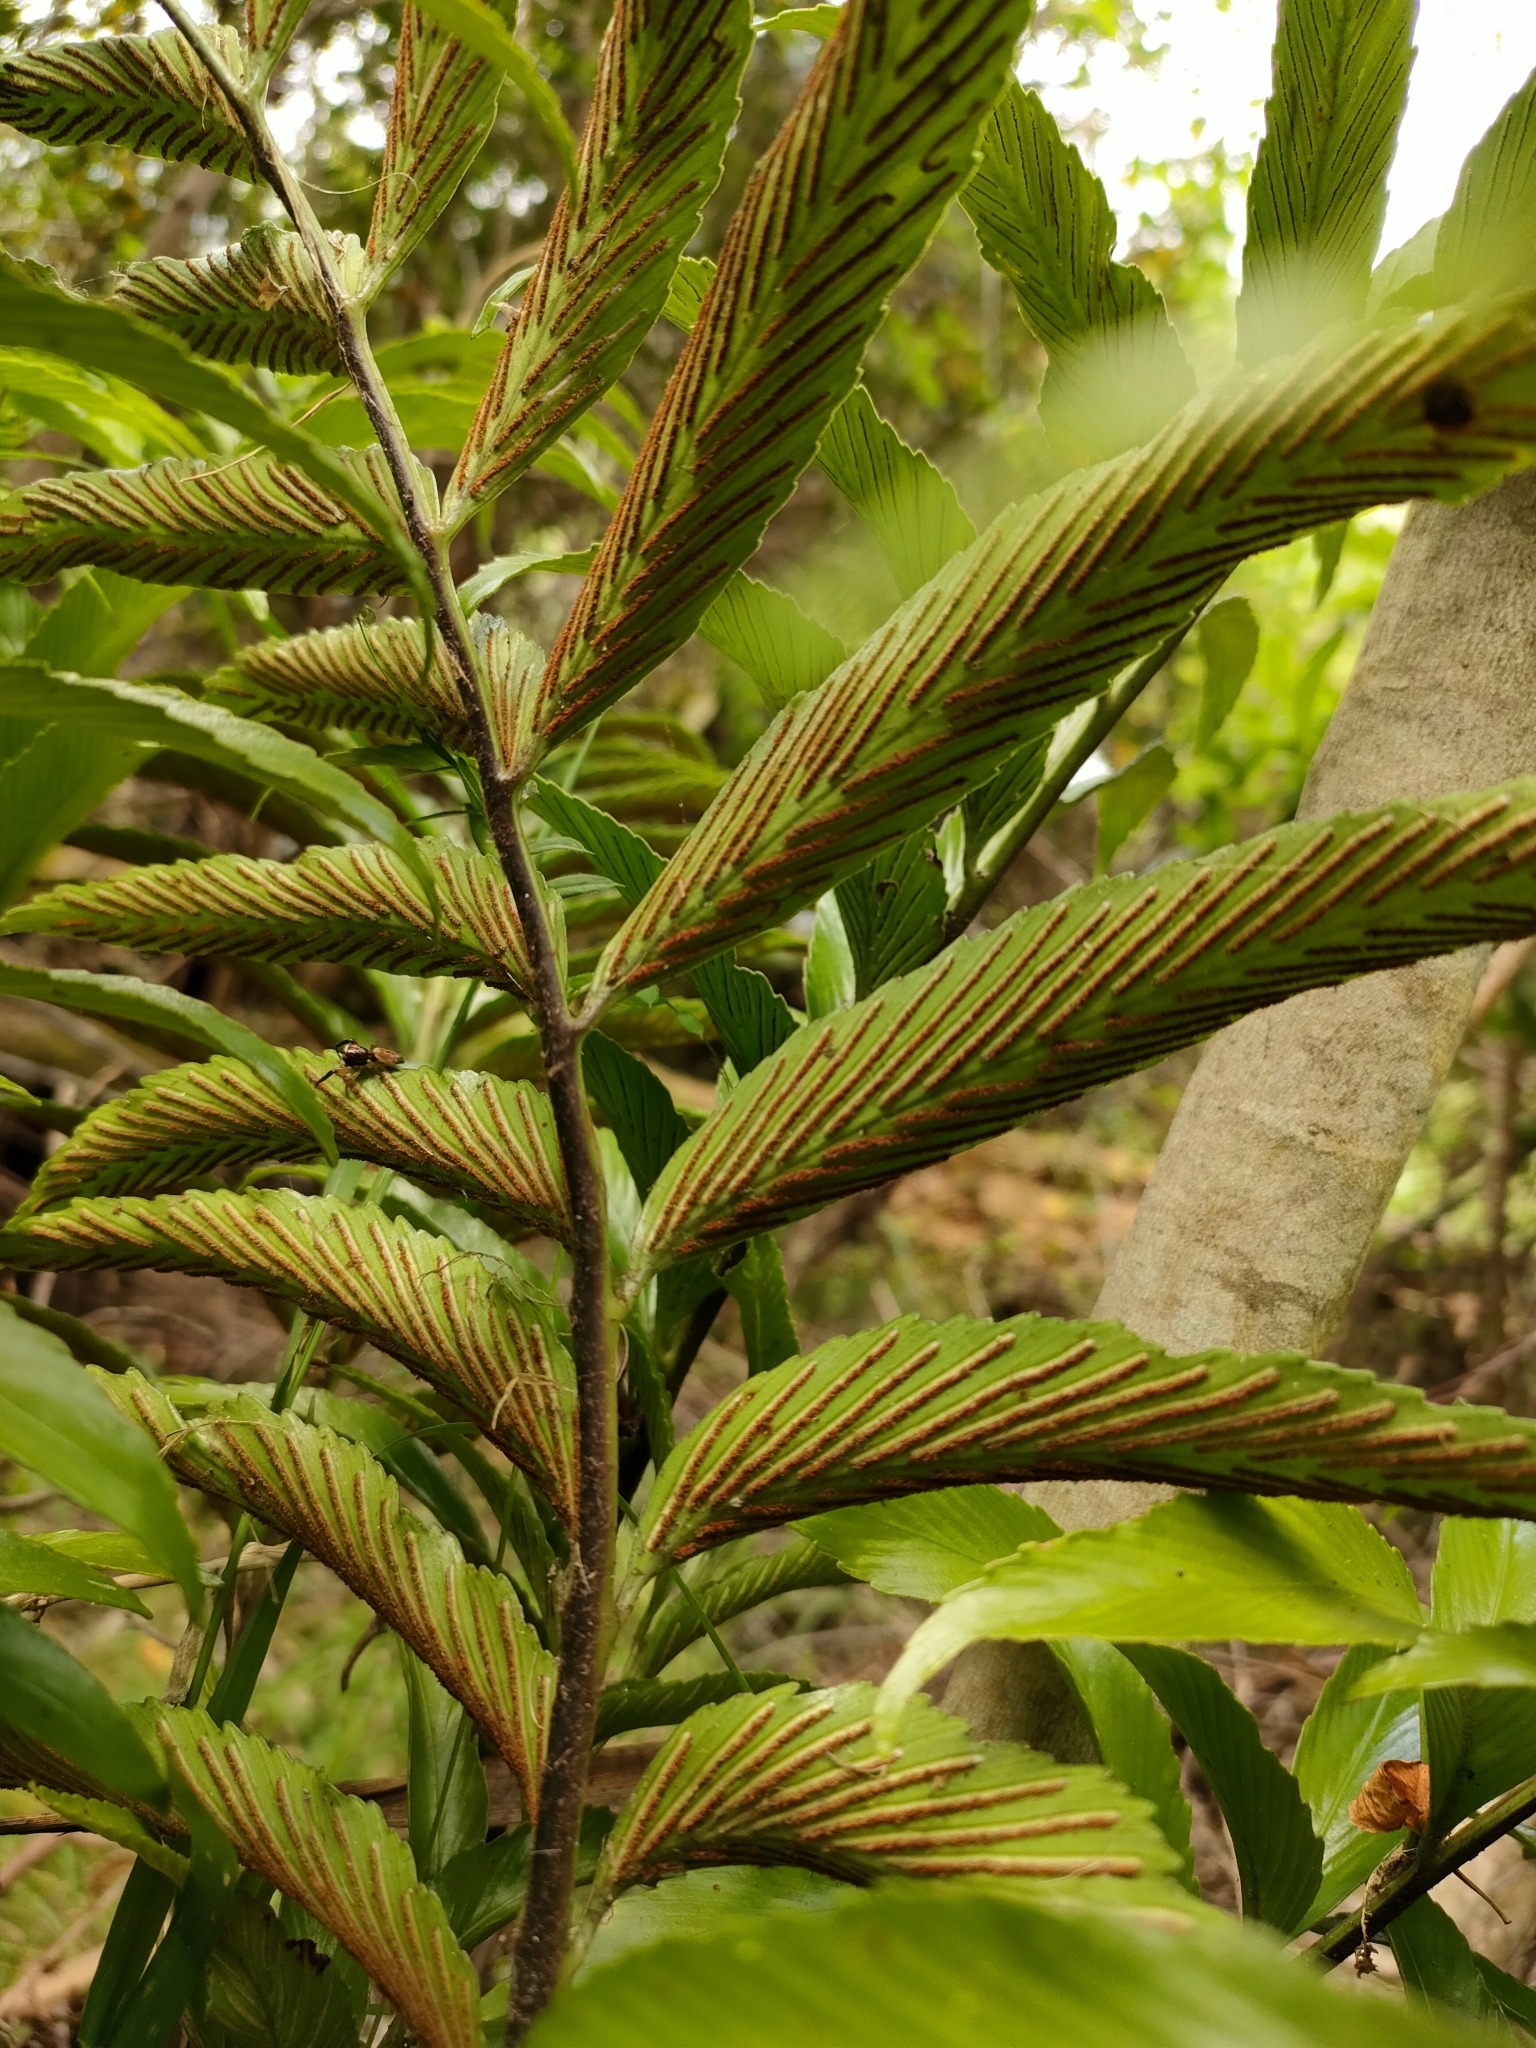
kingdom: Plantae
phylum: Tracheophyta
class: Polypodiopsida
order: Polypodiales
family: Aspleniaceae
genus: Asplenium
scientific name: Asplenium oblongifolium
